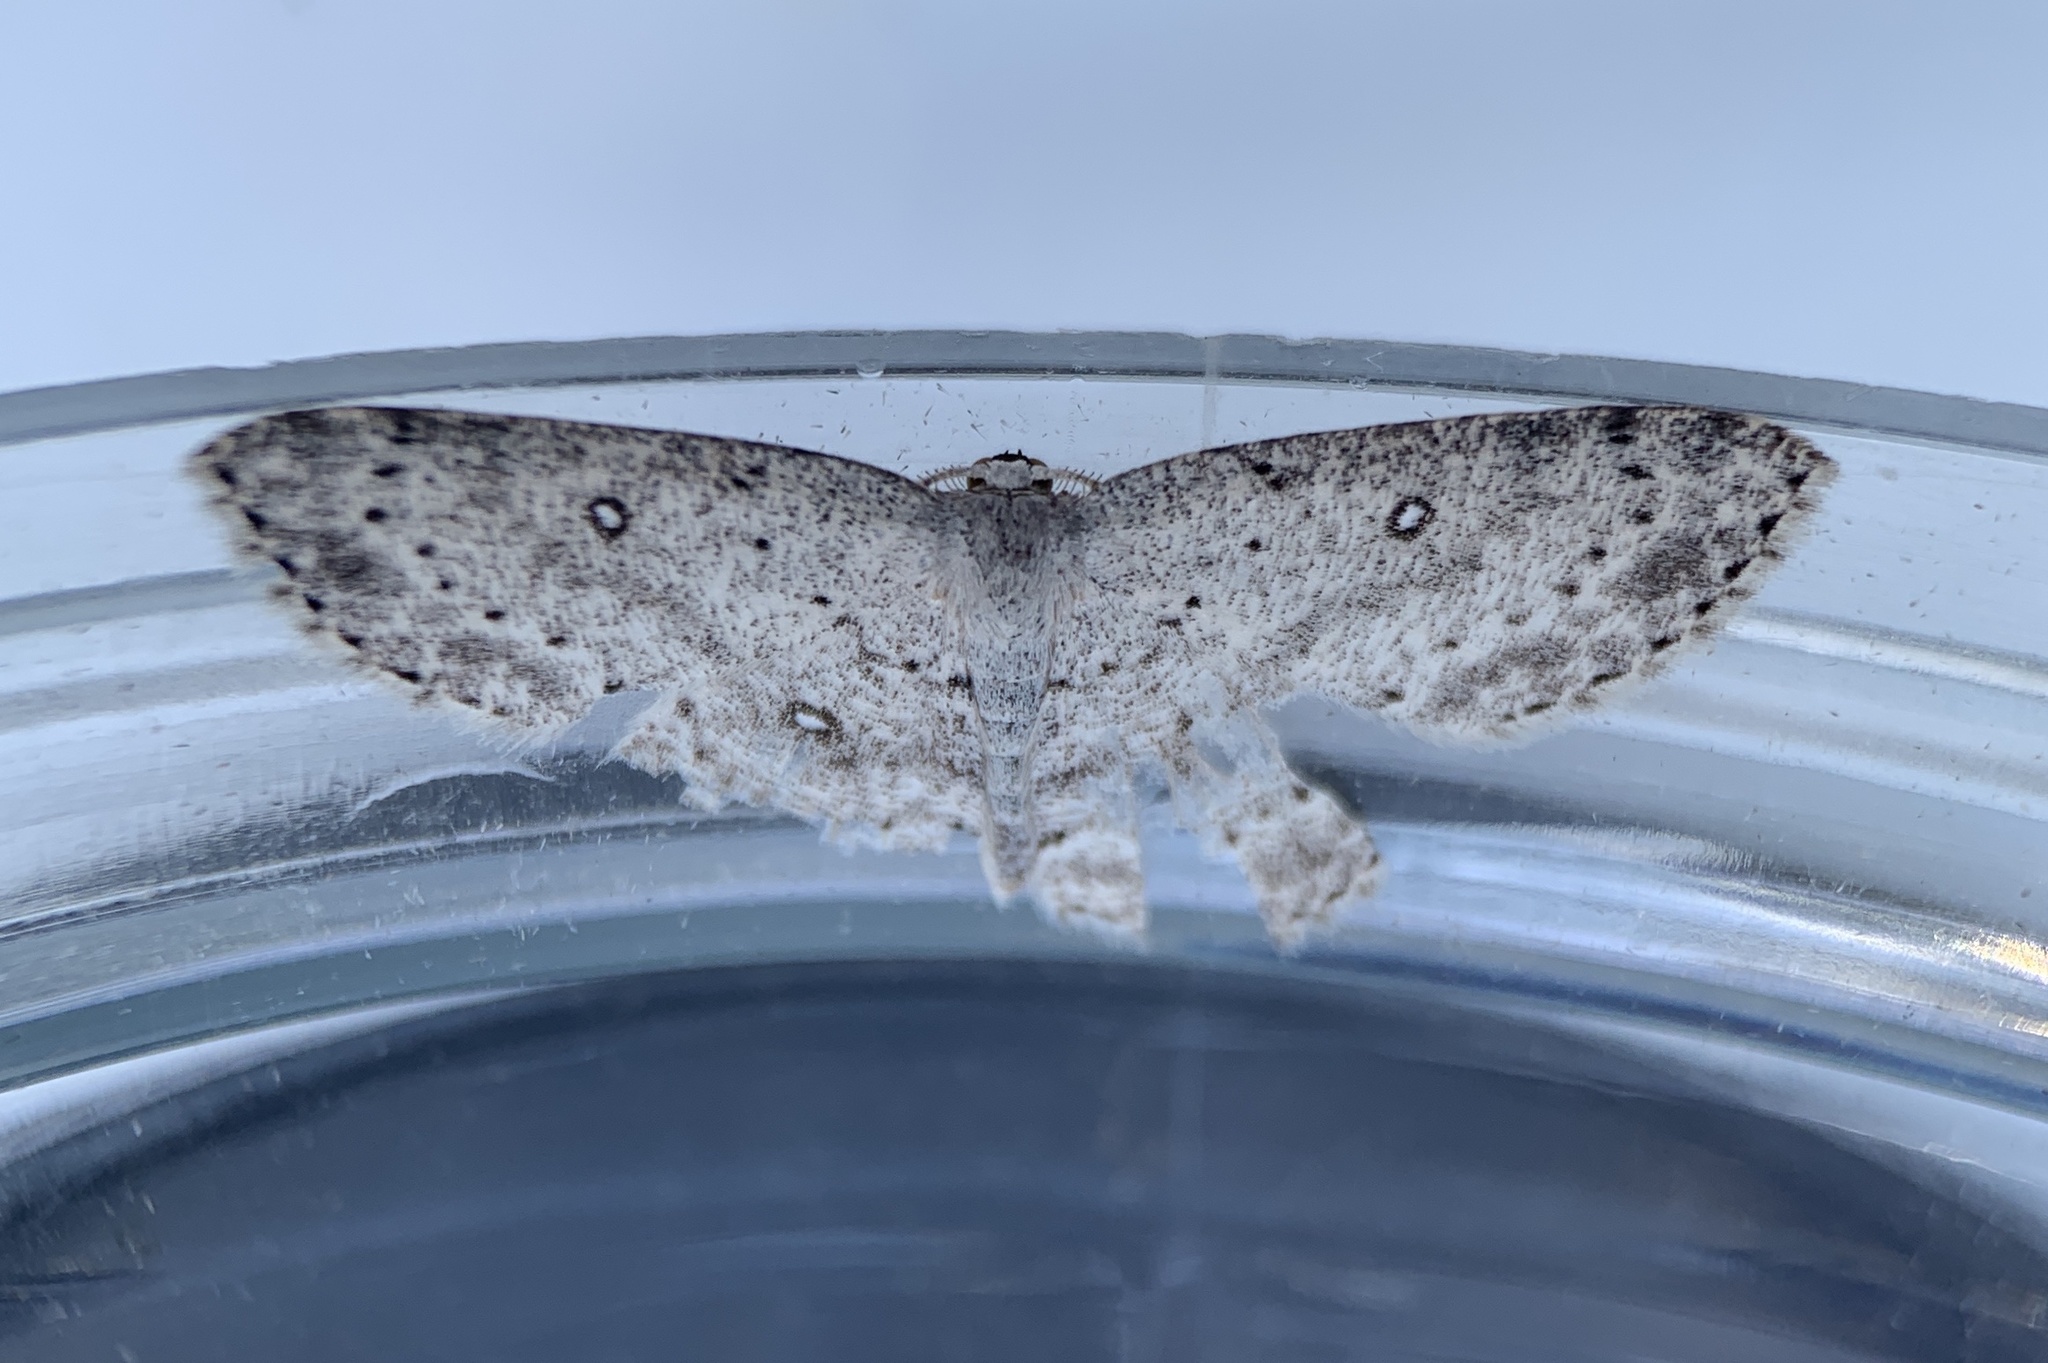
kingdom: Animalia
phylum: Arthropoda
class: Insecta
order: Lepidoptera
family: Geometridae
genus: Cyclophora
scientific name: Cyclophora pendulinaria
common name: Sweet fern geometer
